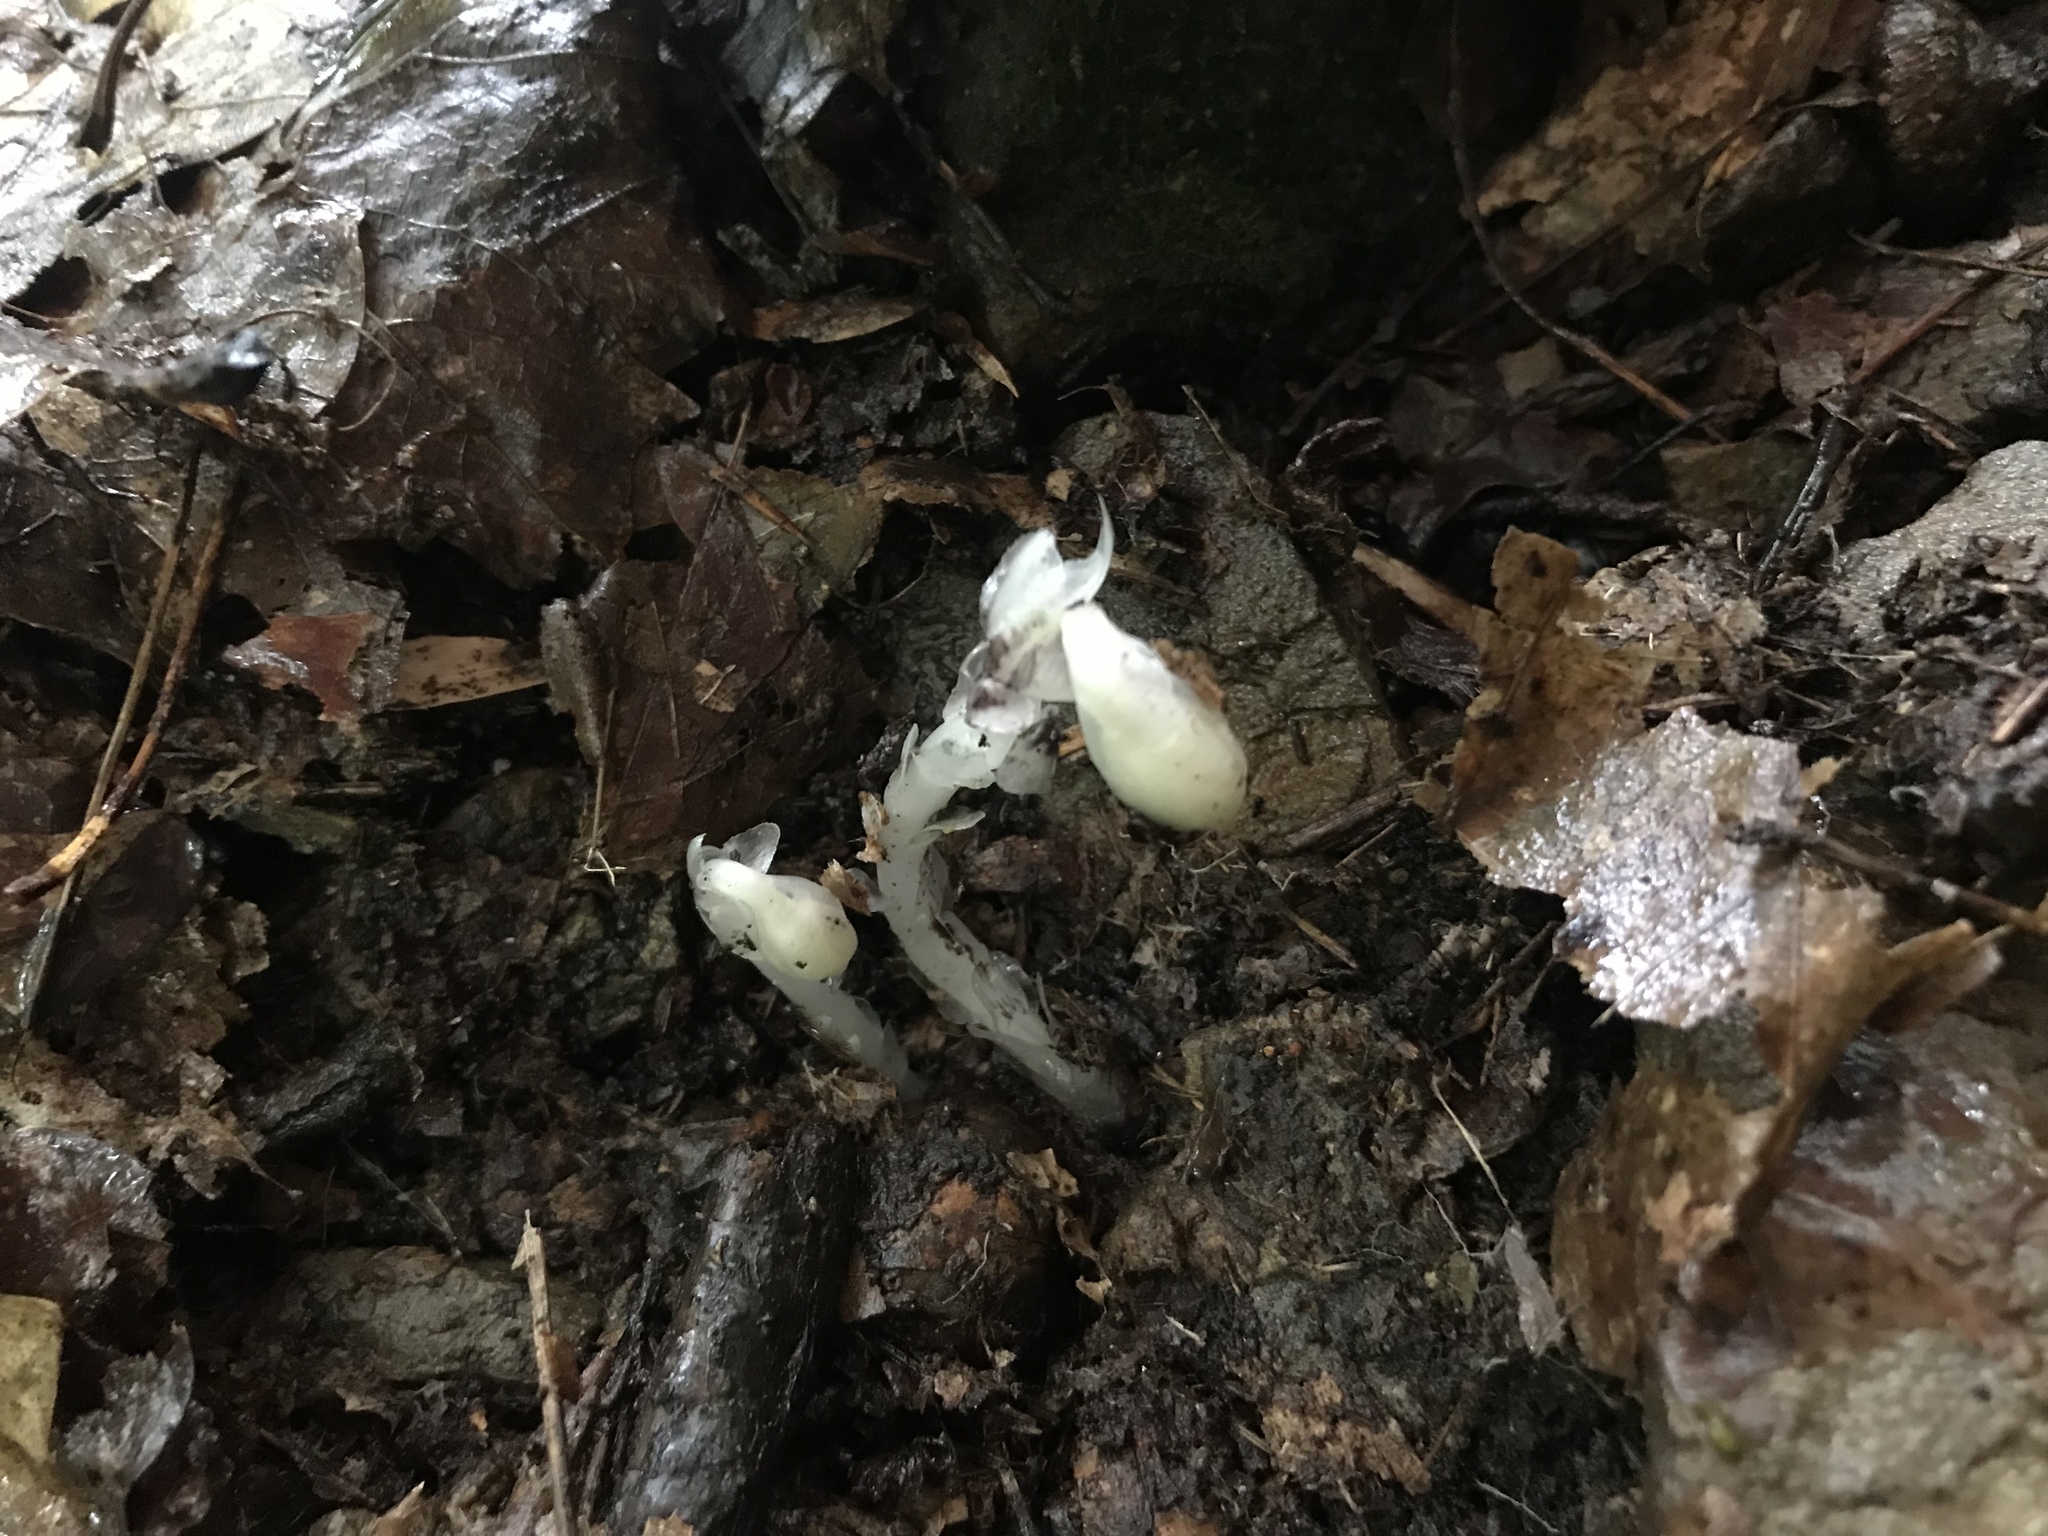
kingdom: Plantae
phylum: Tracheophyta
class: Magnoliopsida
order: Ericales
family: Ericaceae
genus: Monotropa
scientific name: Monotropa uniflora
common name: Convulsion root
